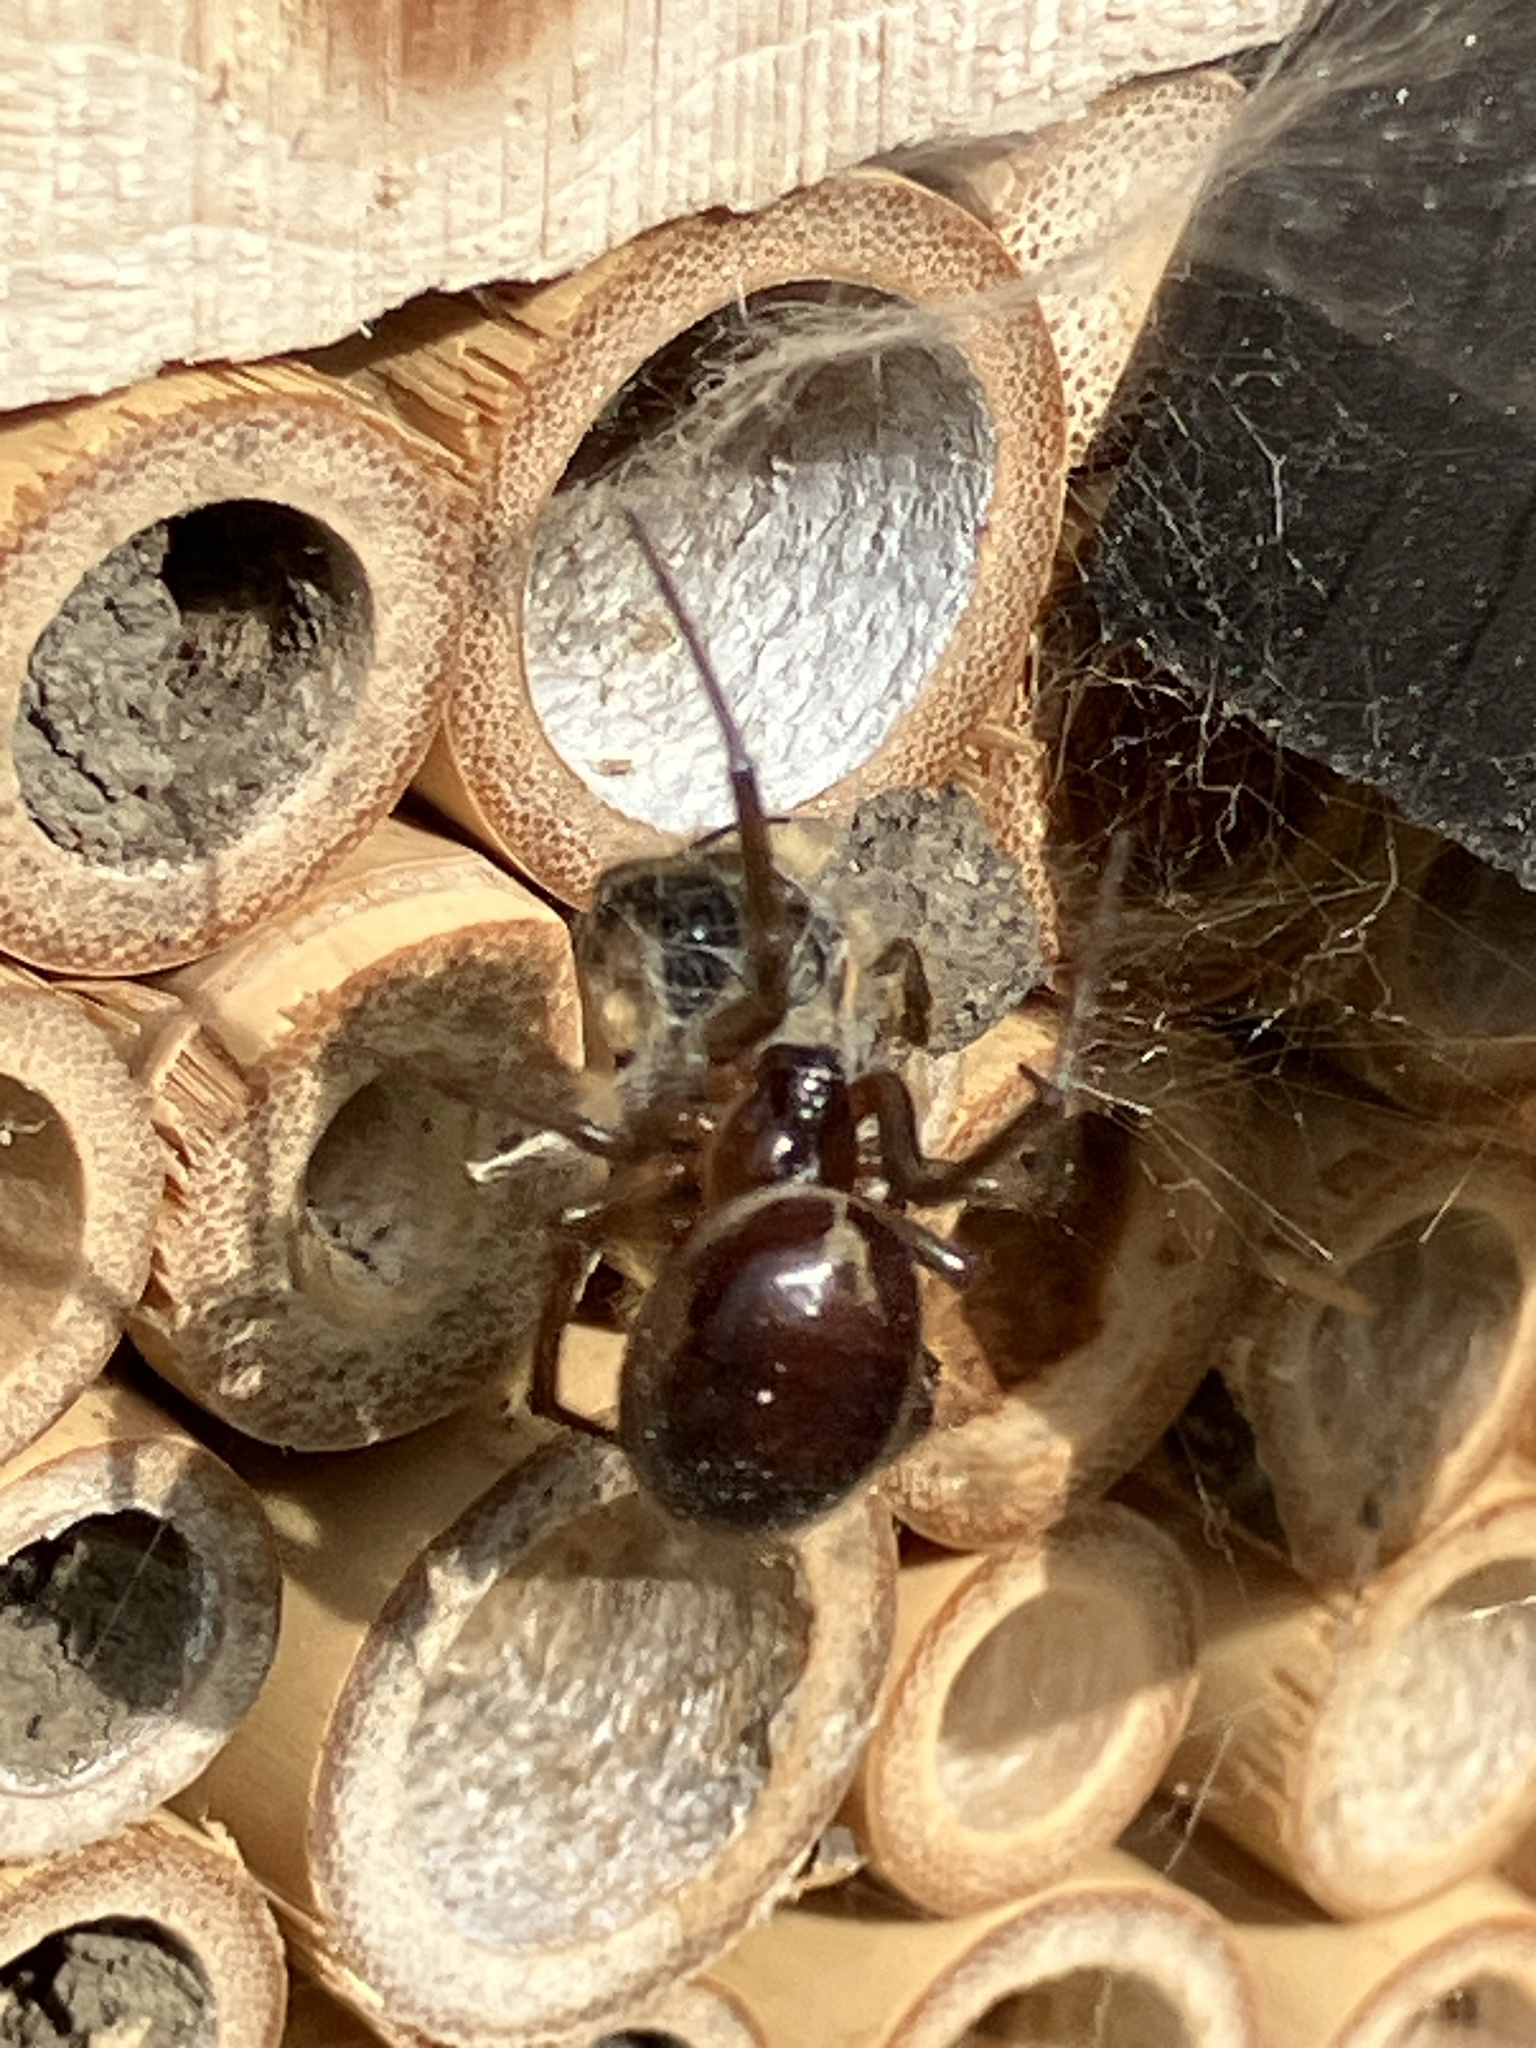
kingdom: Animalia
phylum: Arthropoda
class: Arachnida
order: Araneae
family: Theridiidae
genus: Steatoda
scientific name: Steatoda nobilis
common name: Cobweb weaver
